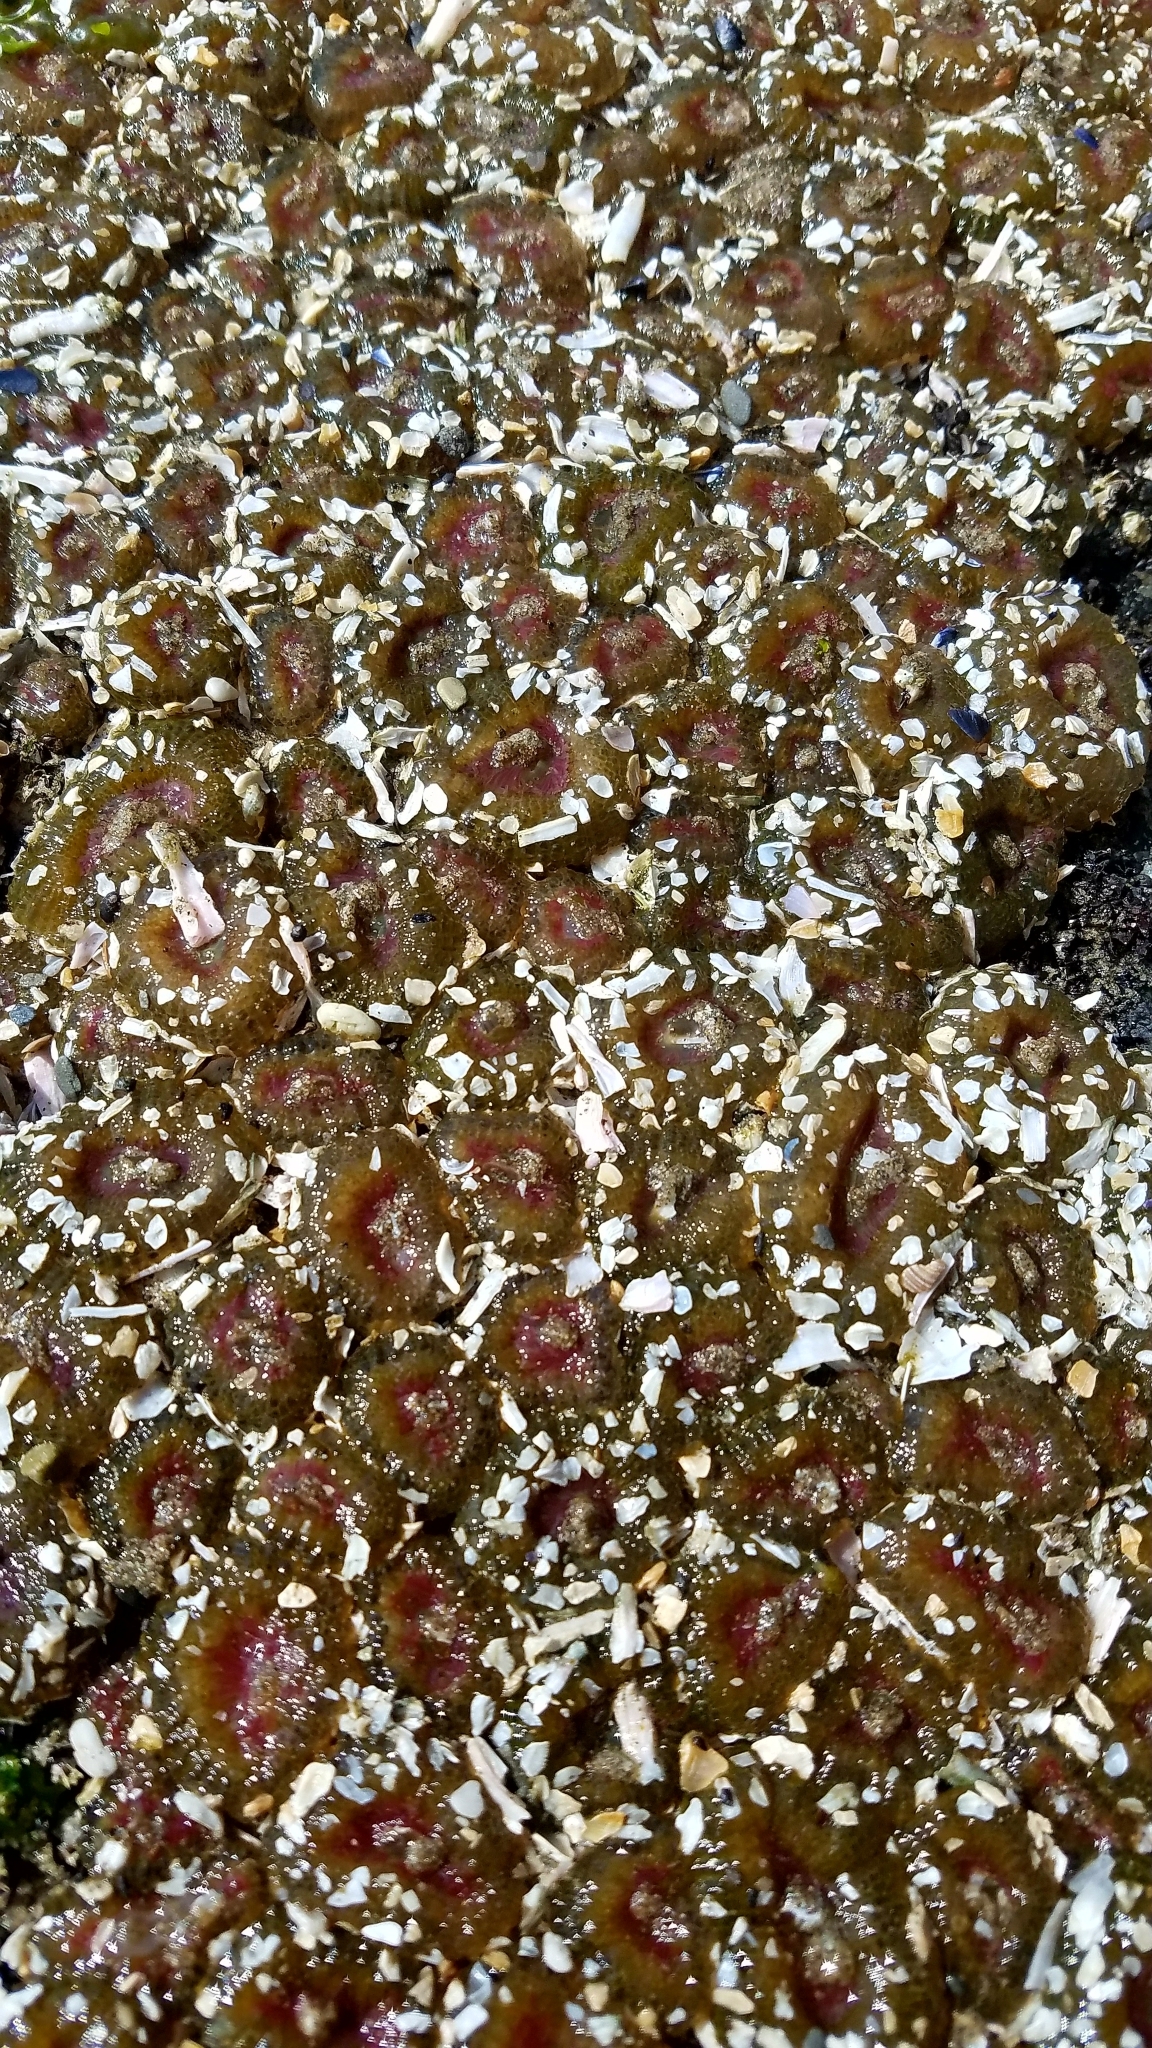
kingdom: Animalia
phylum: Cnidaria
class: Anthozoa
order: Actiniaria
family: Actiniidae
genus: Anthopleura
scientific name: Anthopleura elegantissima
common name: Clonal anemone
